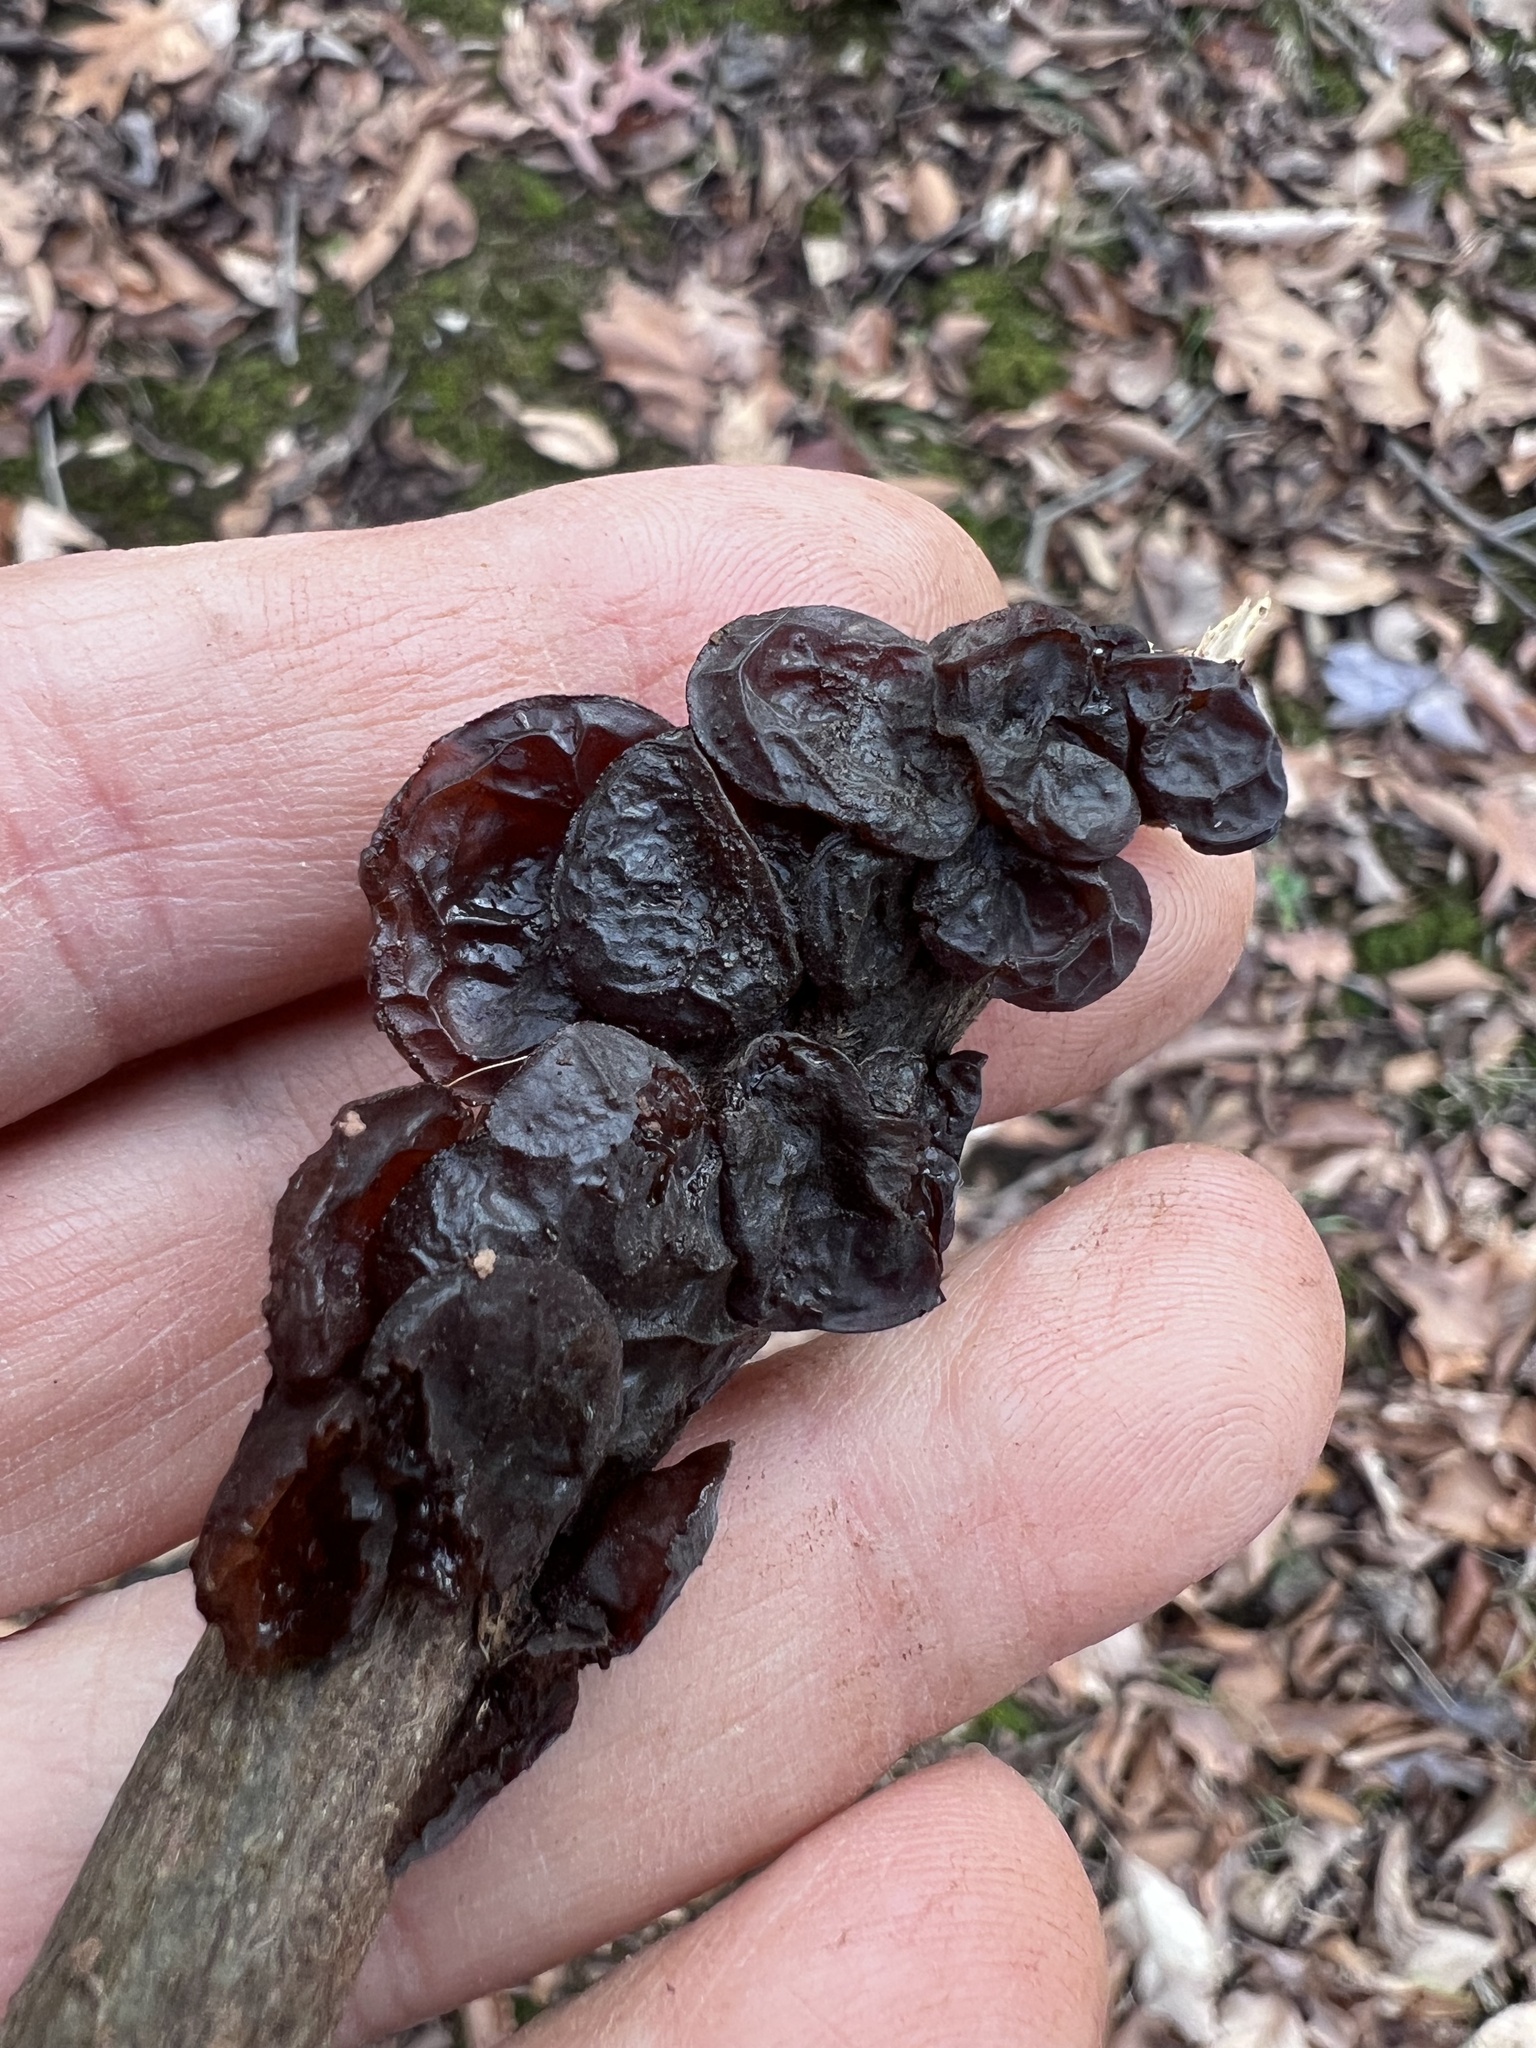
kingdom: Fungi
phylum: Basidiomycota
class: Agaricomycetes
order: Auriculariales
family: Auriculariaceae
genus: Exidia
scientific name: Exidia
